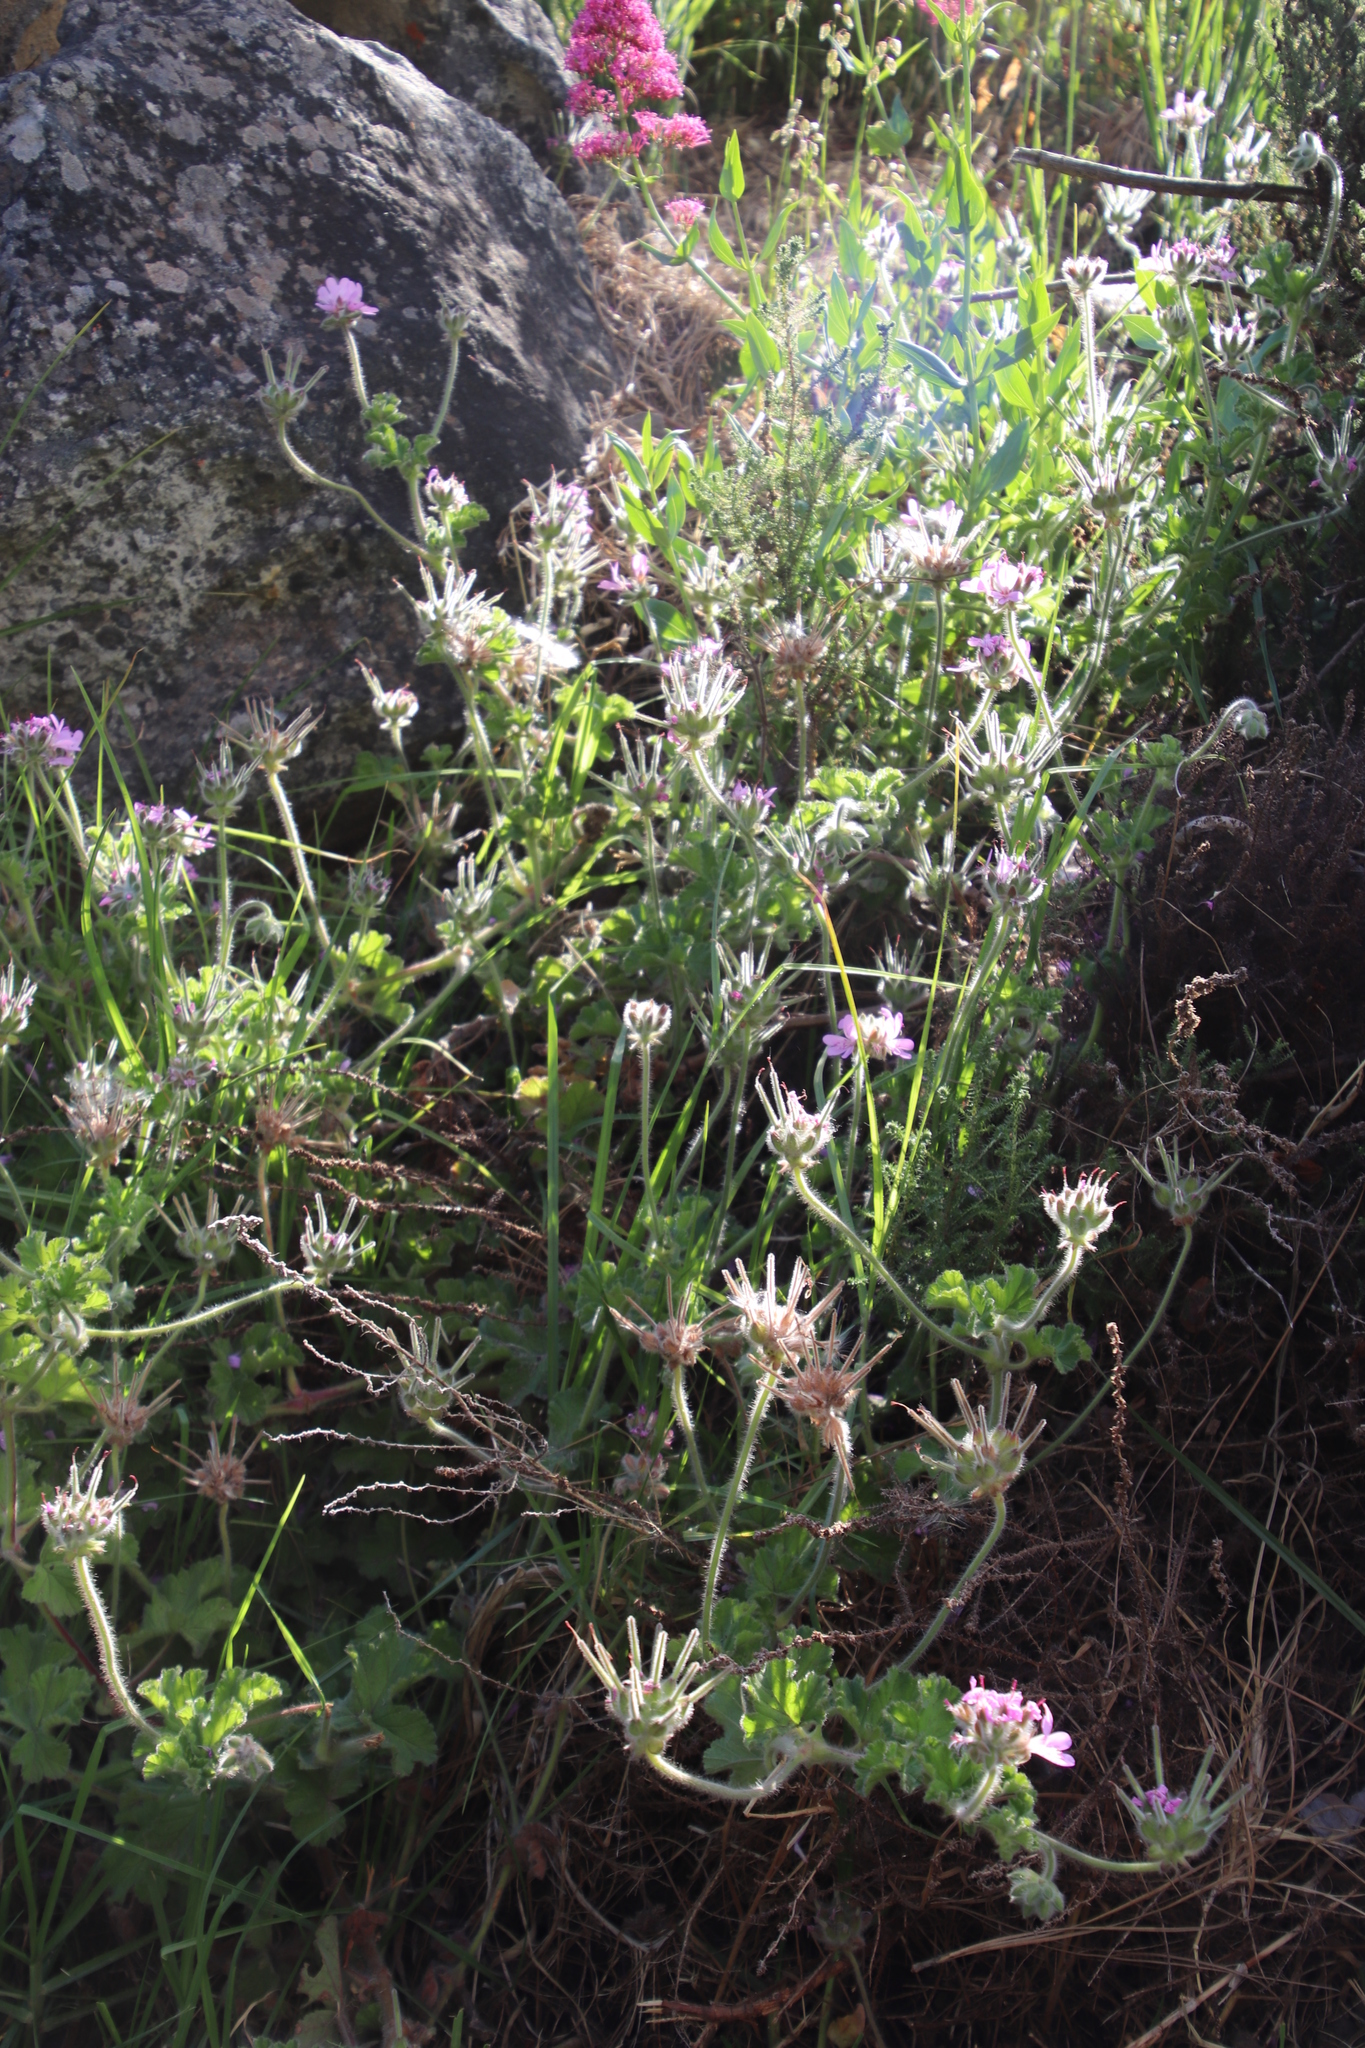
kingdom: Plantae
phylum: Tracheophyta
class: Magnoliopsida
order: Geraniales
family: Geraniaceae
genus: Pelargonium
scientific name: Pelargonium capitatum
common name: Rose scented geranium
